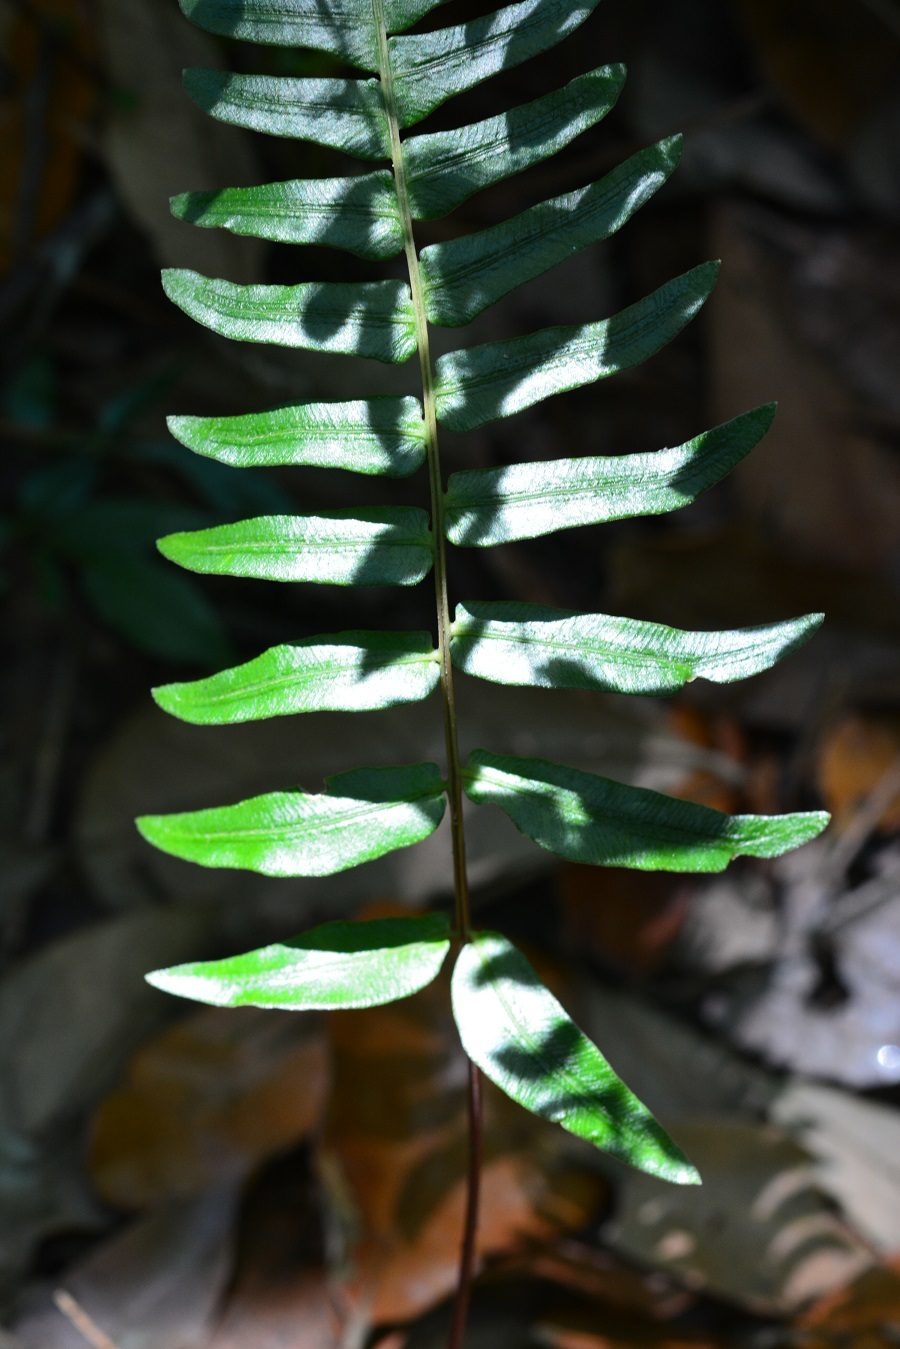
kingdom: Plantae
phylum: Tracheophyta
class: Polypodiopsida
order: Polypodiales
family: Blechnaceae
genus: Blechnum
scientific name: Blechnum appendiculatum
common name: Palm fern
